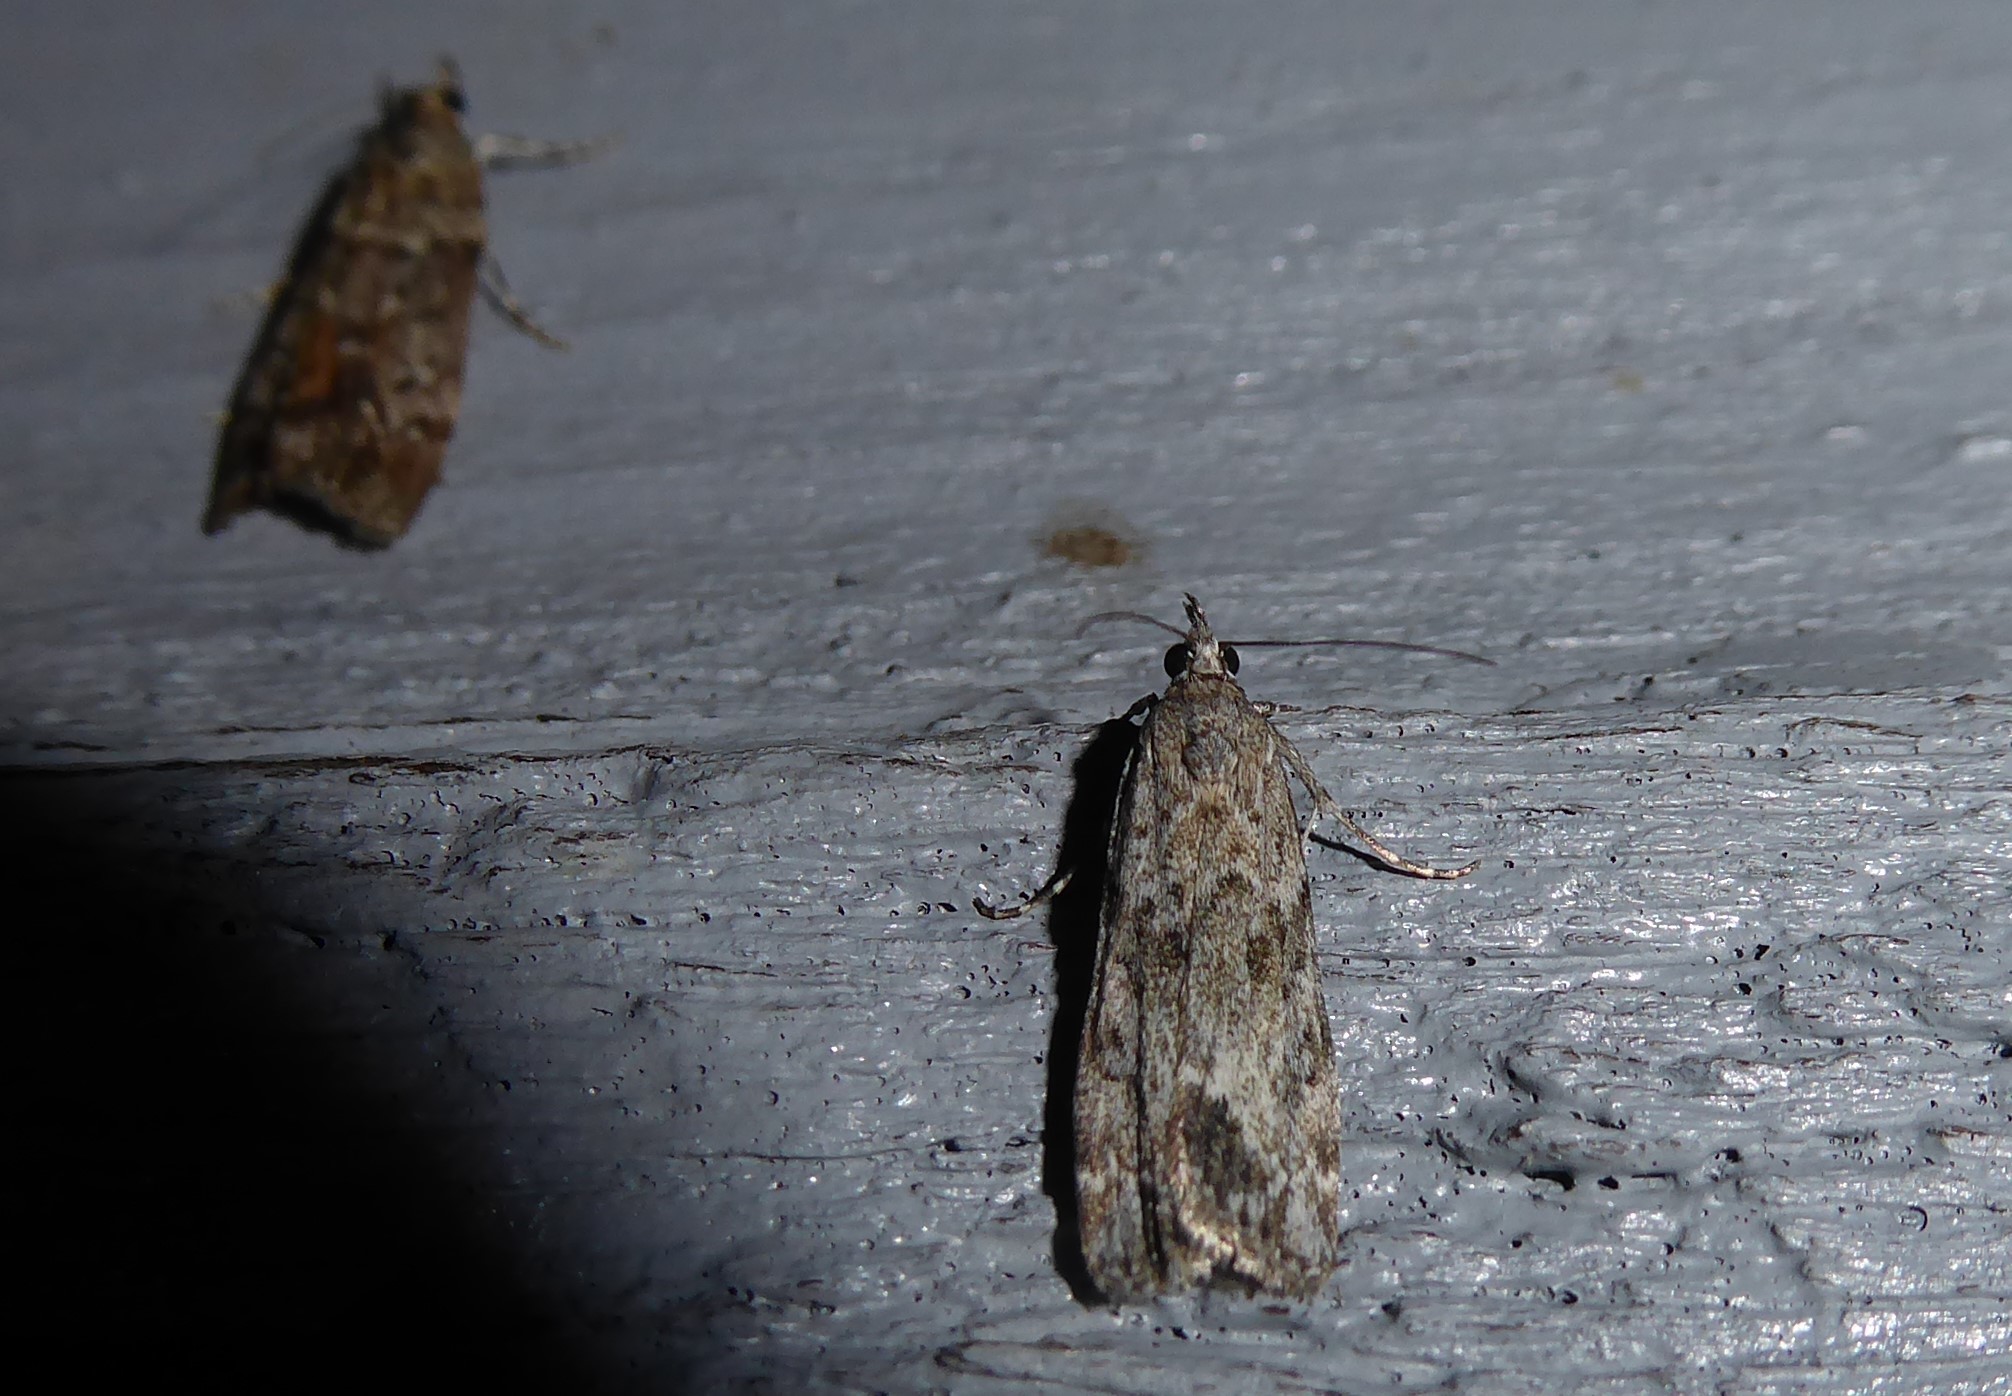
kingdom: Animalia
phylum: Arthropoda
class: Insecta
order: Lepidoptera
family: Crambidae
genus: Eudonia
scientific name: Eudonia rakaiensis
